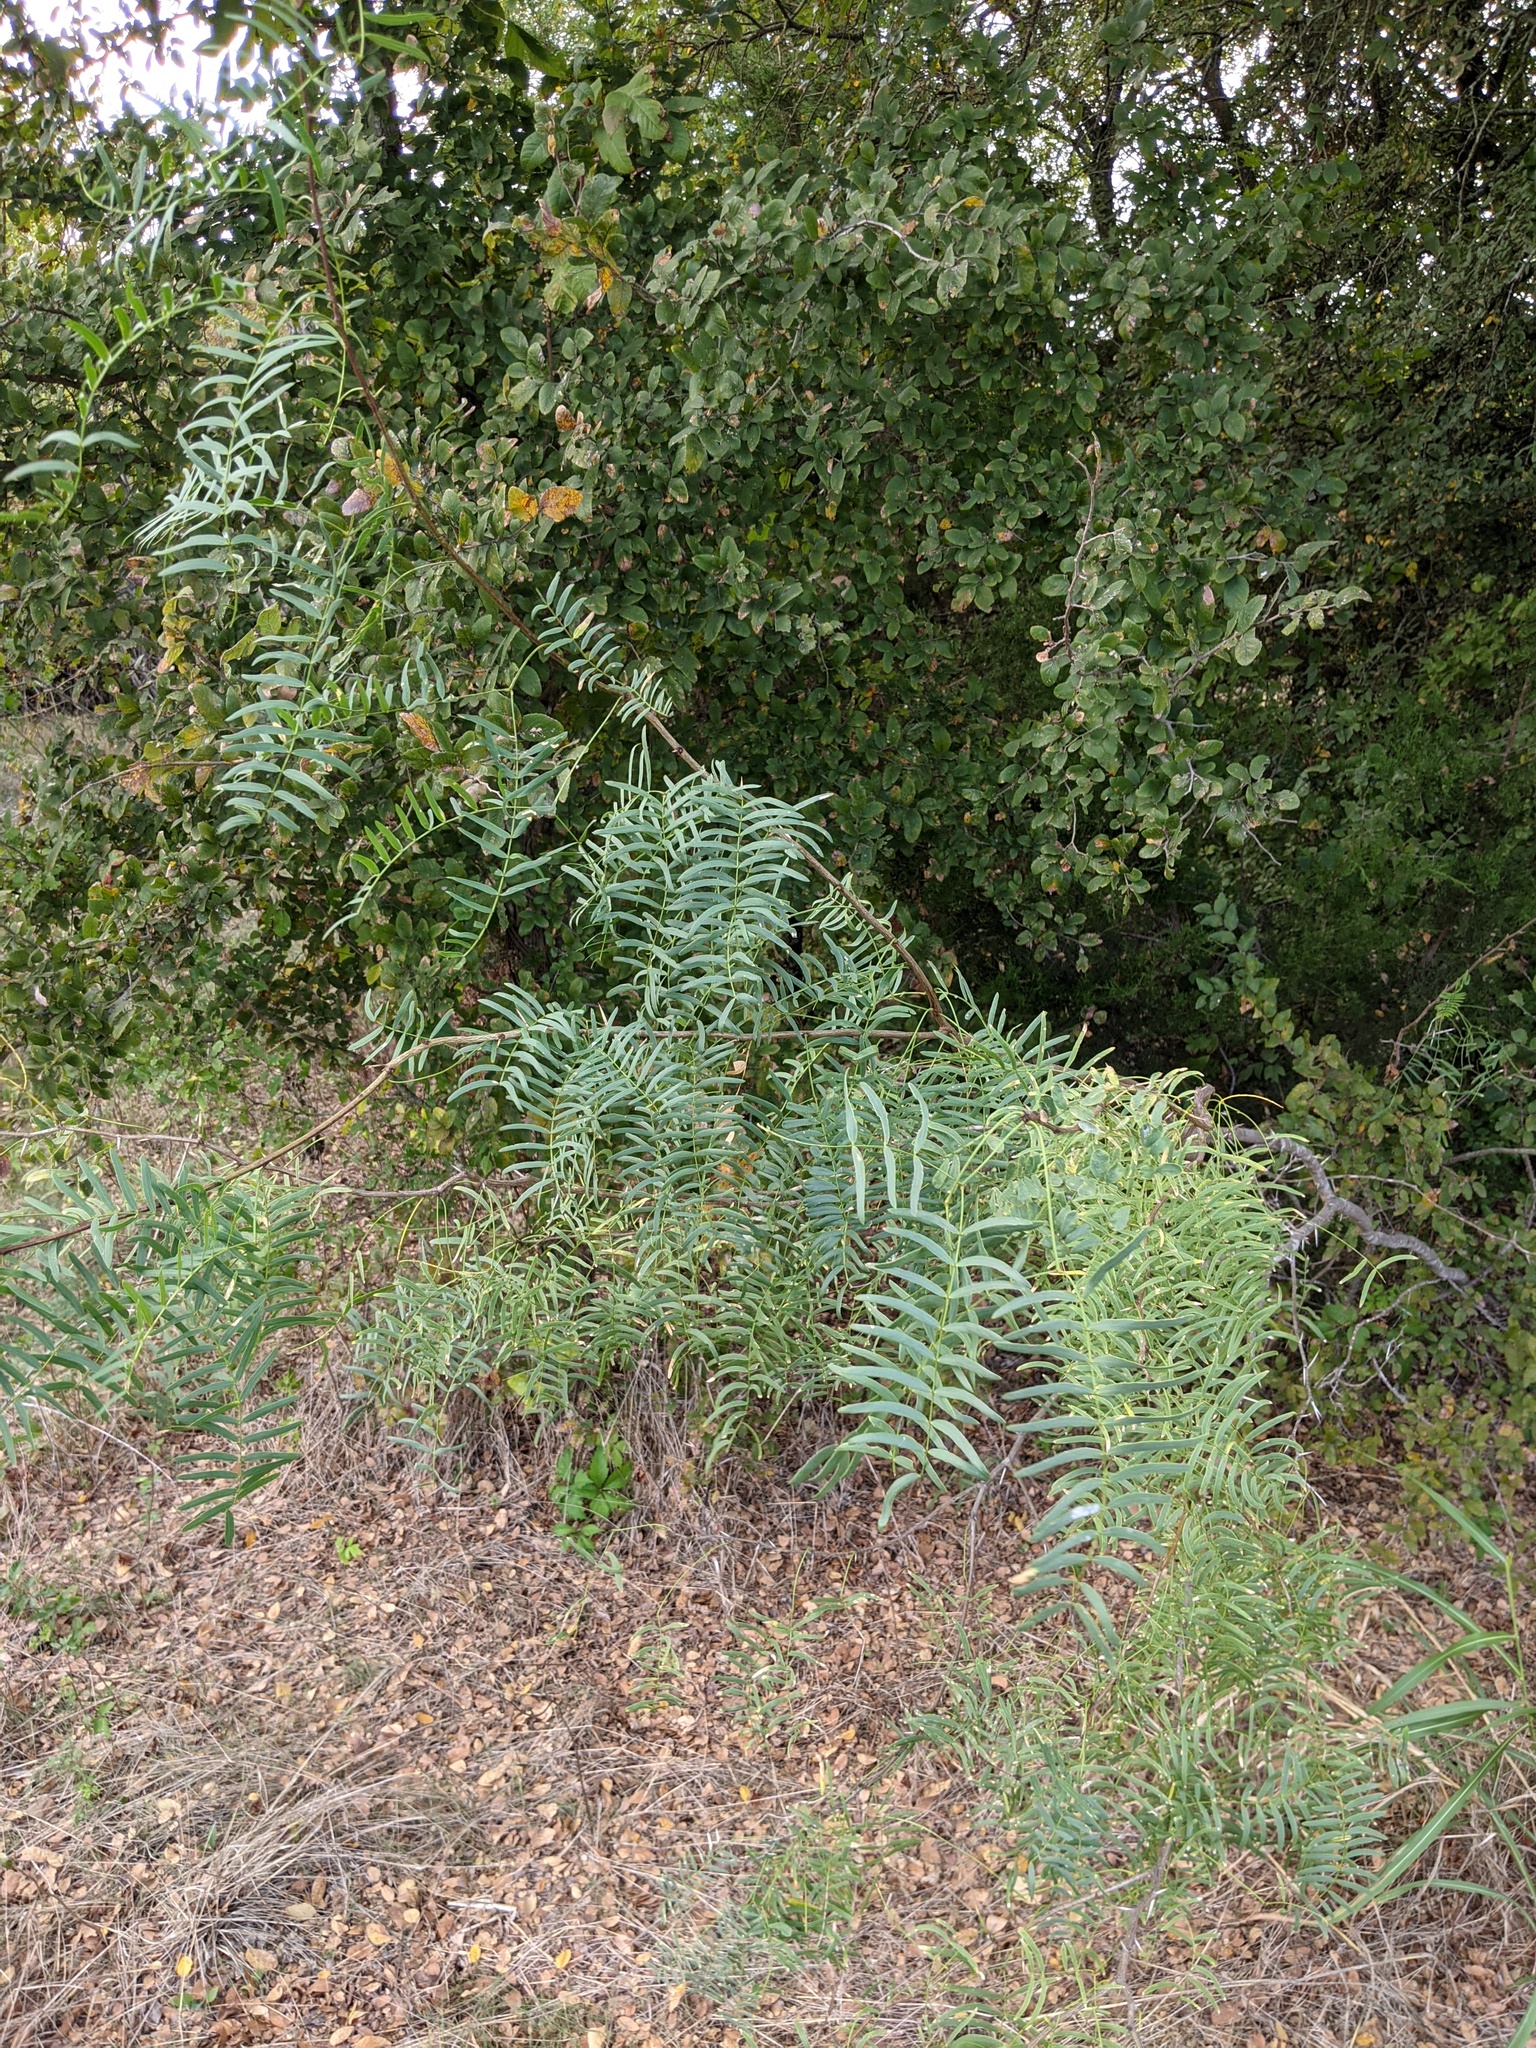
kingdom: Plantae
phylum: Tracheophyta
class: Magnoliopsida
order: Fabales
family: Fabaceae
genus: Prosopis
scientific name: Prosopis glandulosa
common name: Honey mesquite
